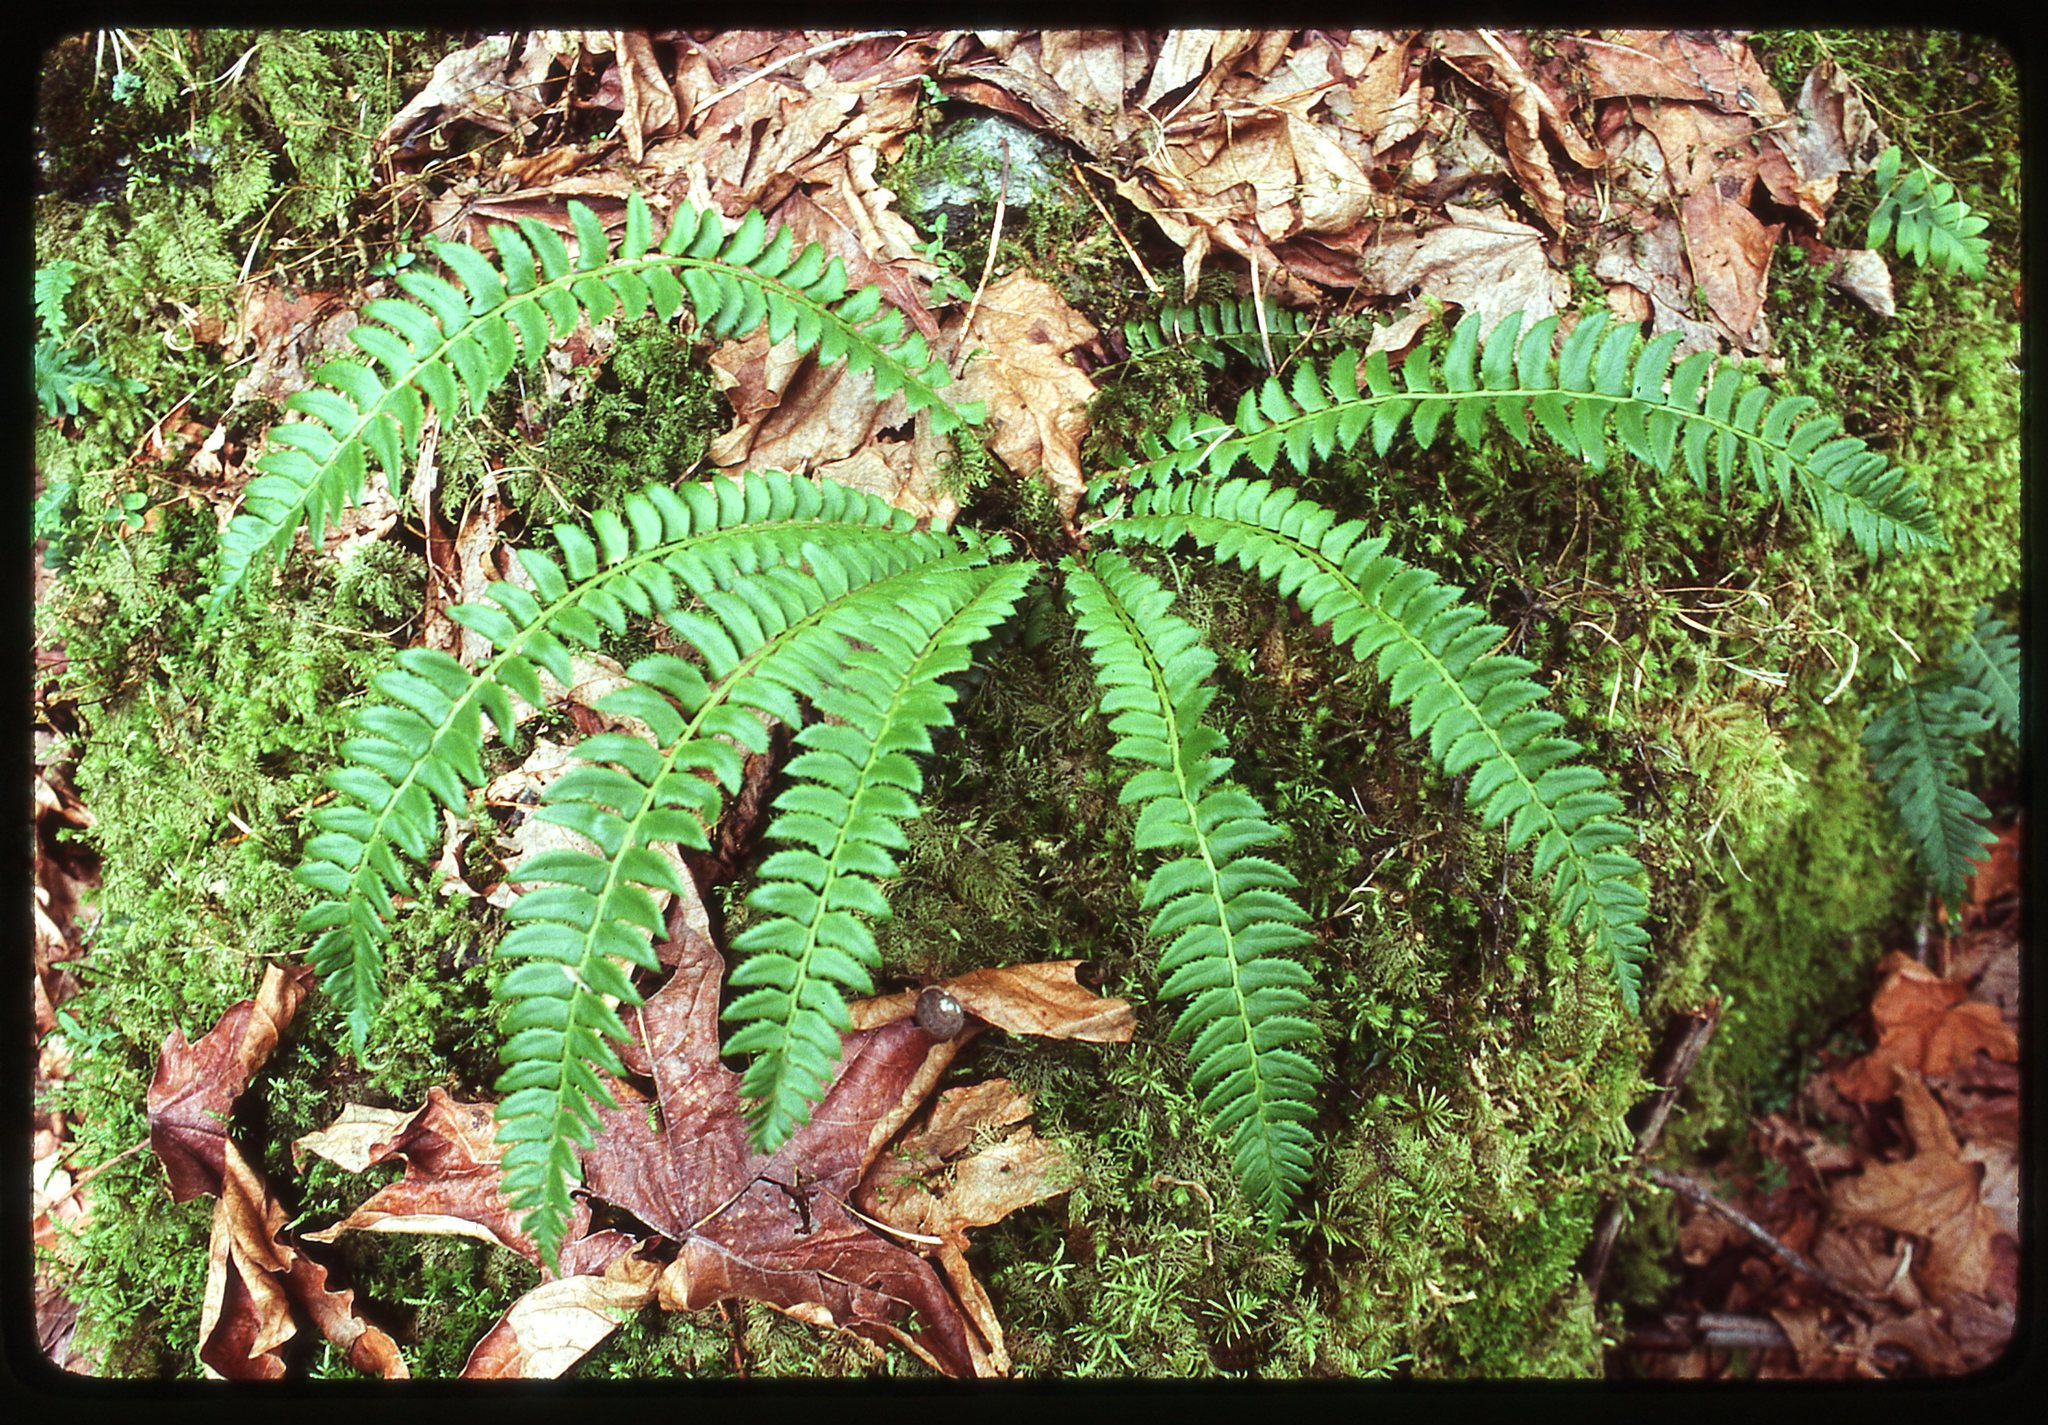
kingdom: Plantae
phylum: Tracheophyta
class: Polypodiopsida
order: Polypodiales
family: Dryopteridaceae
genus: Polystichum
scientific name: Polystichum lonchitis
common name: Holly fern
